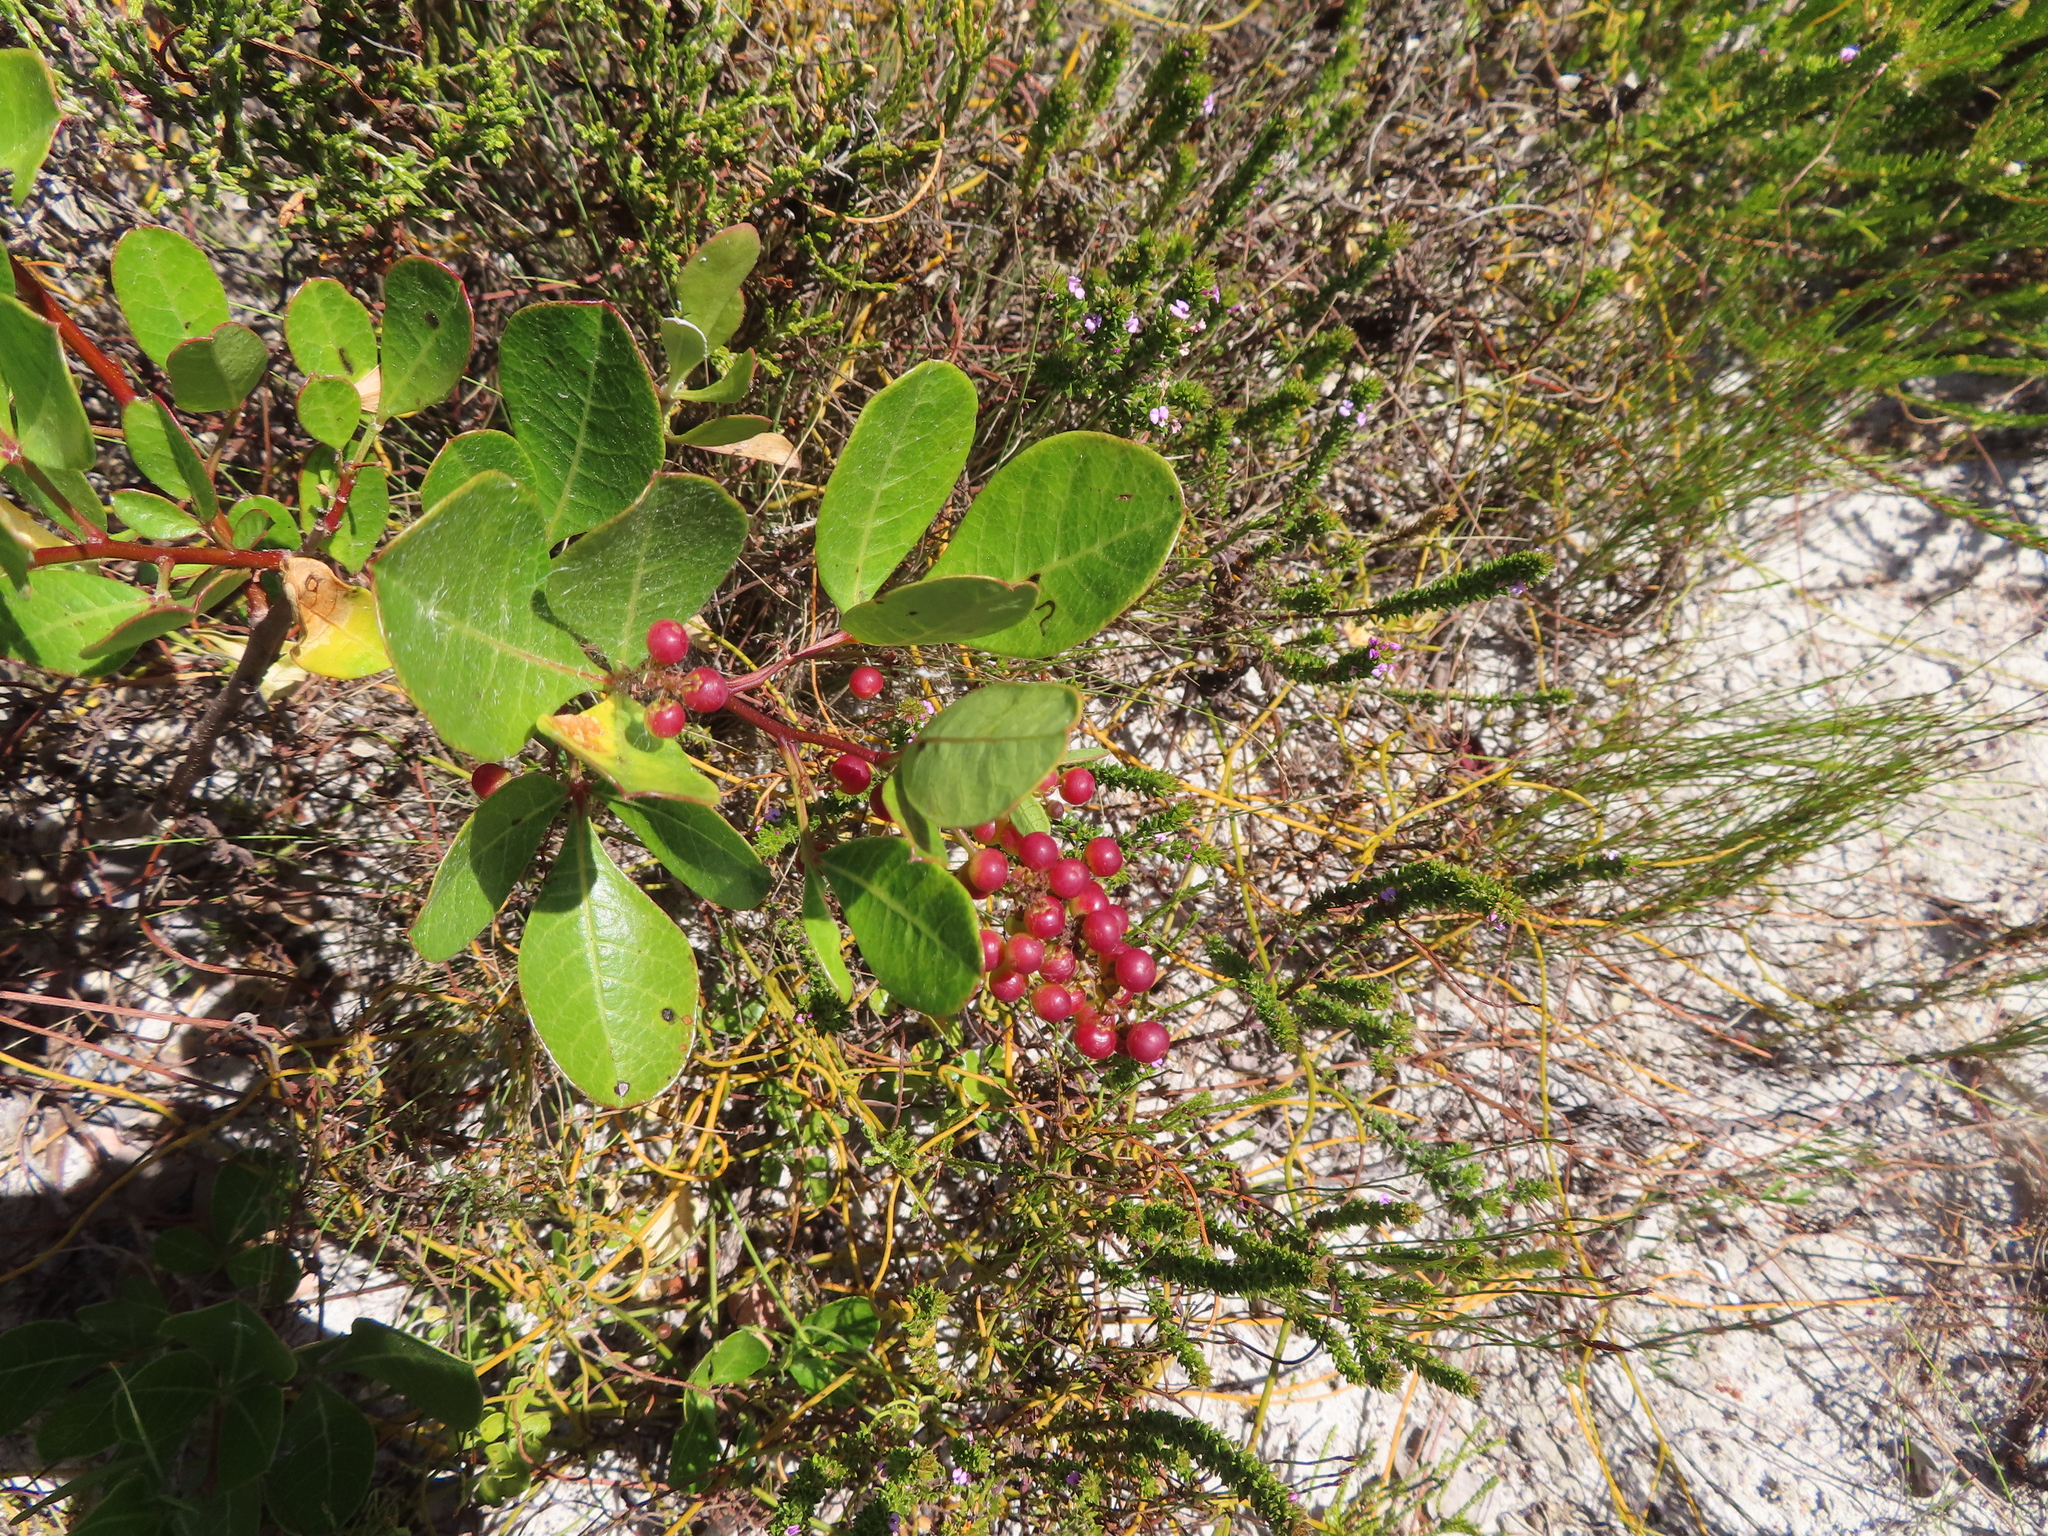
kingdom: Plantae
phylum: Tracheophyta
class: Magnoliopsida
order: Sapindales
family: Anacardiaceae
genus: Searsia
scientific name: Searsia laevigata
